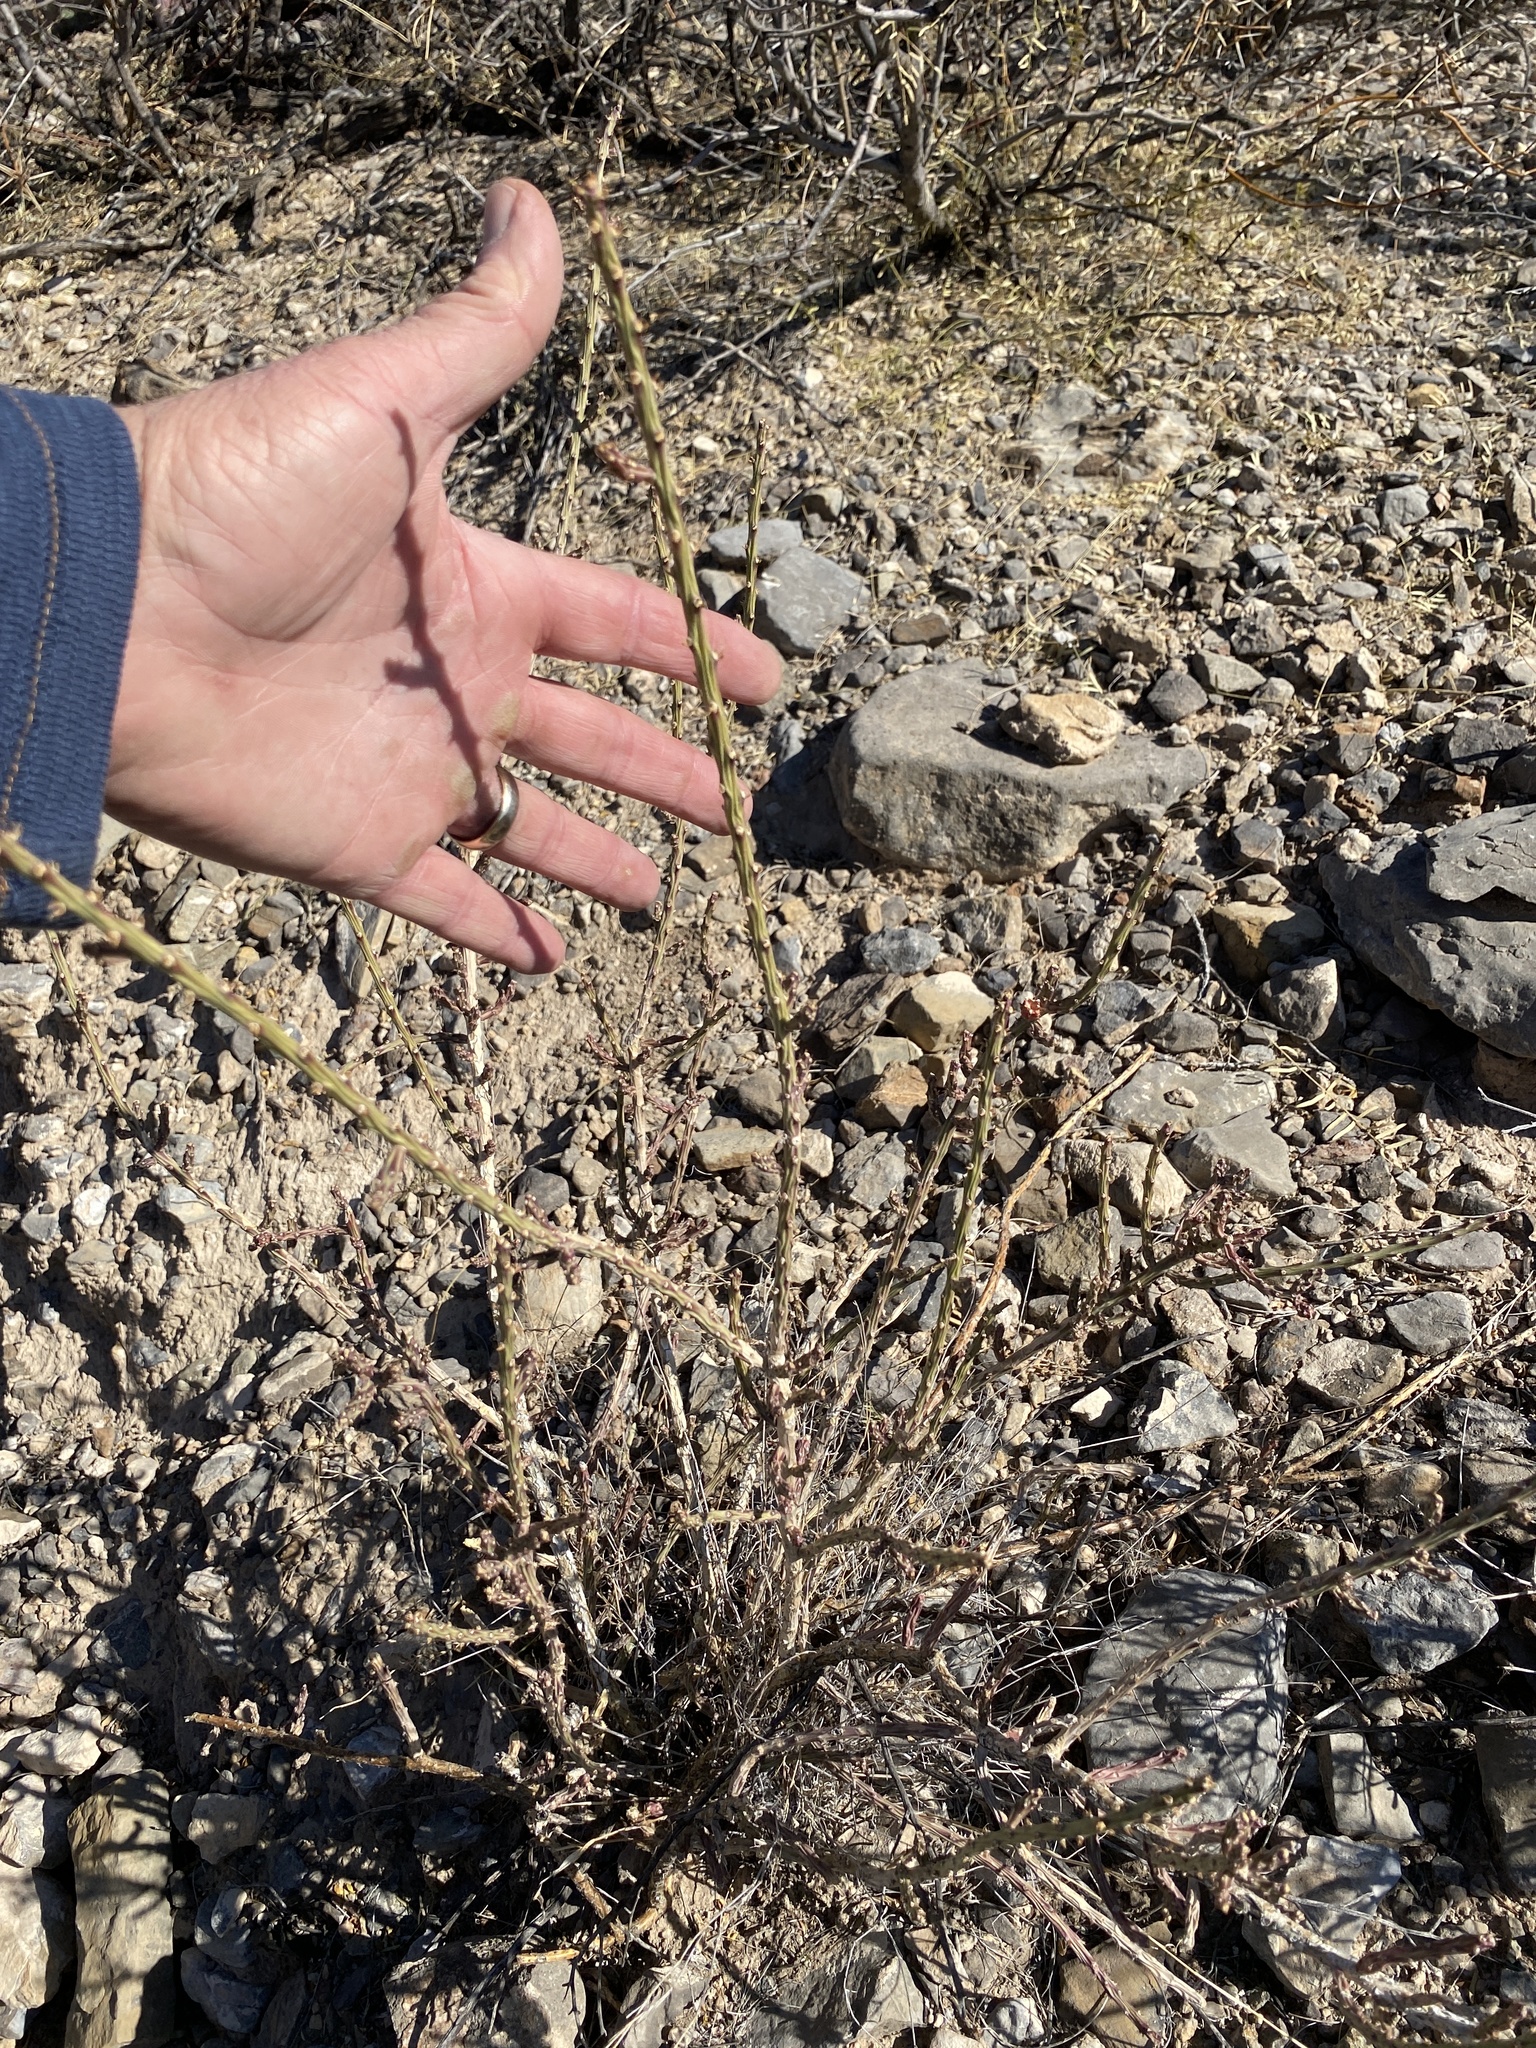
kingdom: Plantae
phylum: Tracheophyta
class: Magnoliopsida
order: Caryophyllales
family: Cactaceae
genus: Cylindropuntia
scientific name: Cylindropuntia leptocaulis
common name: Christmas cactus
